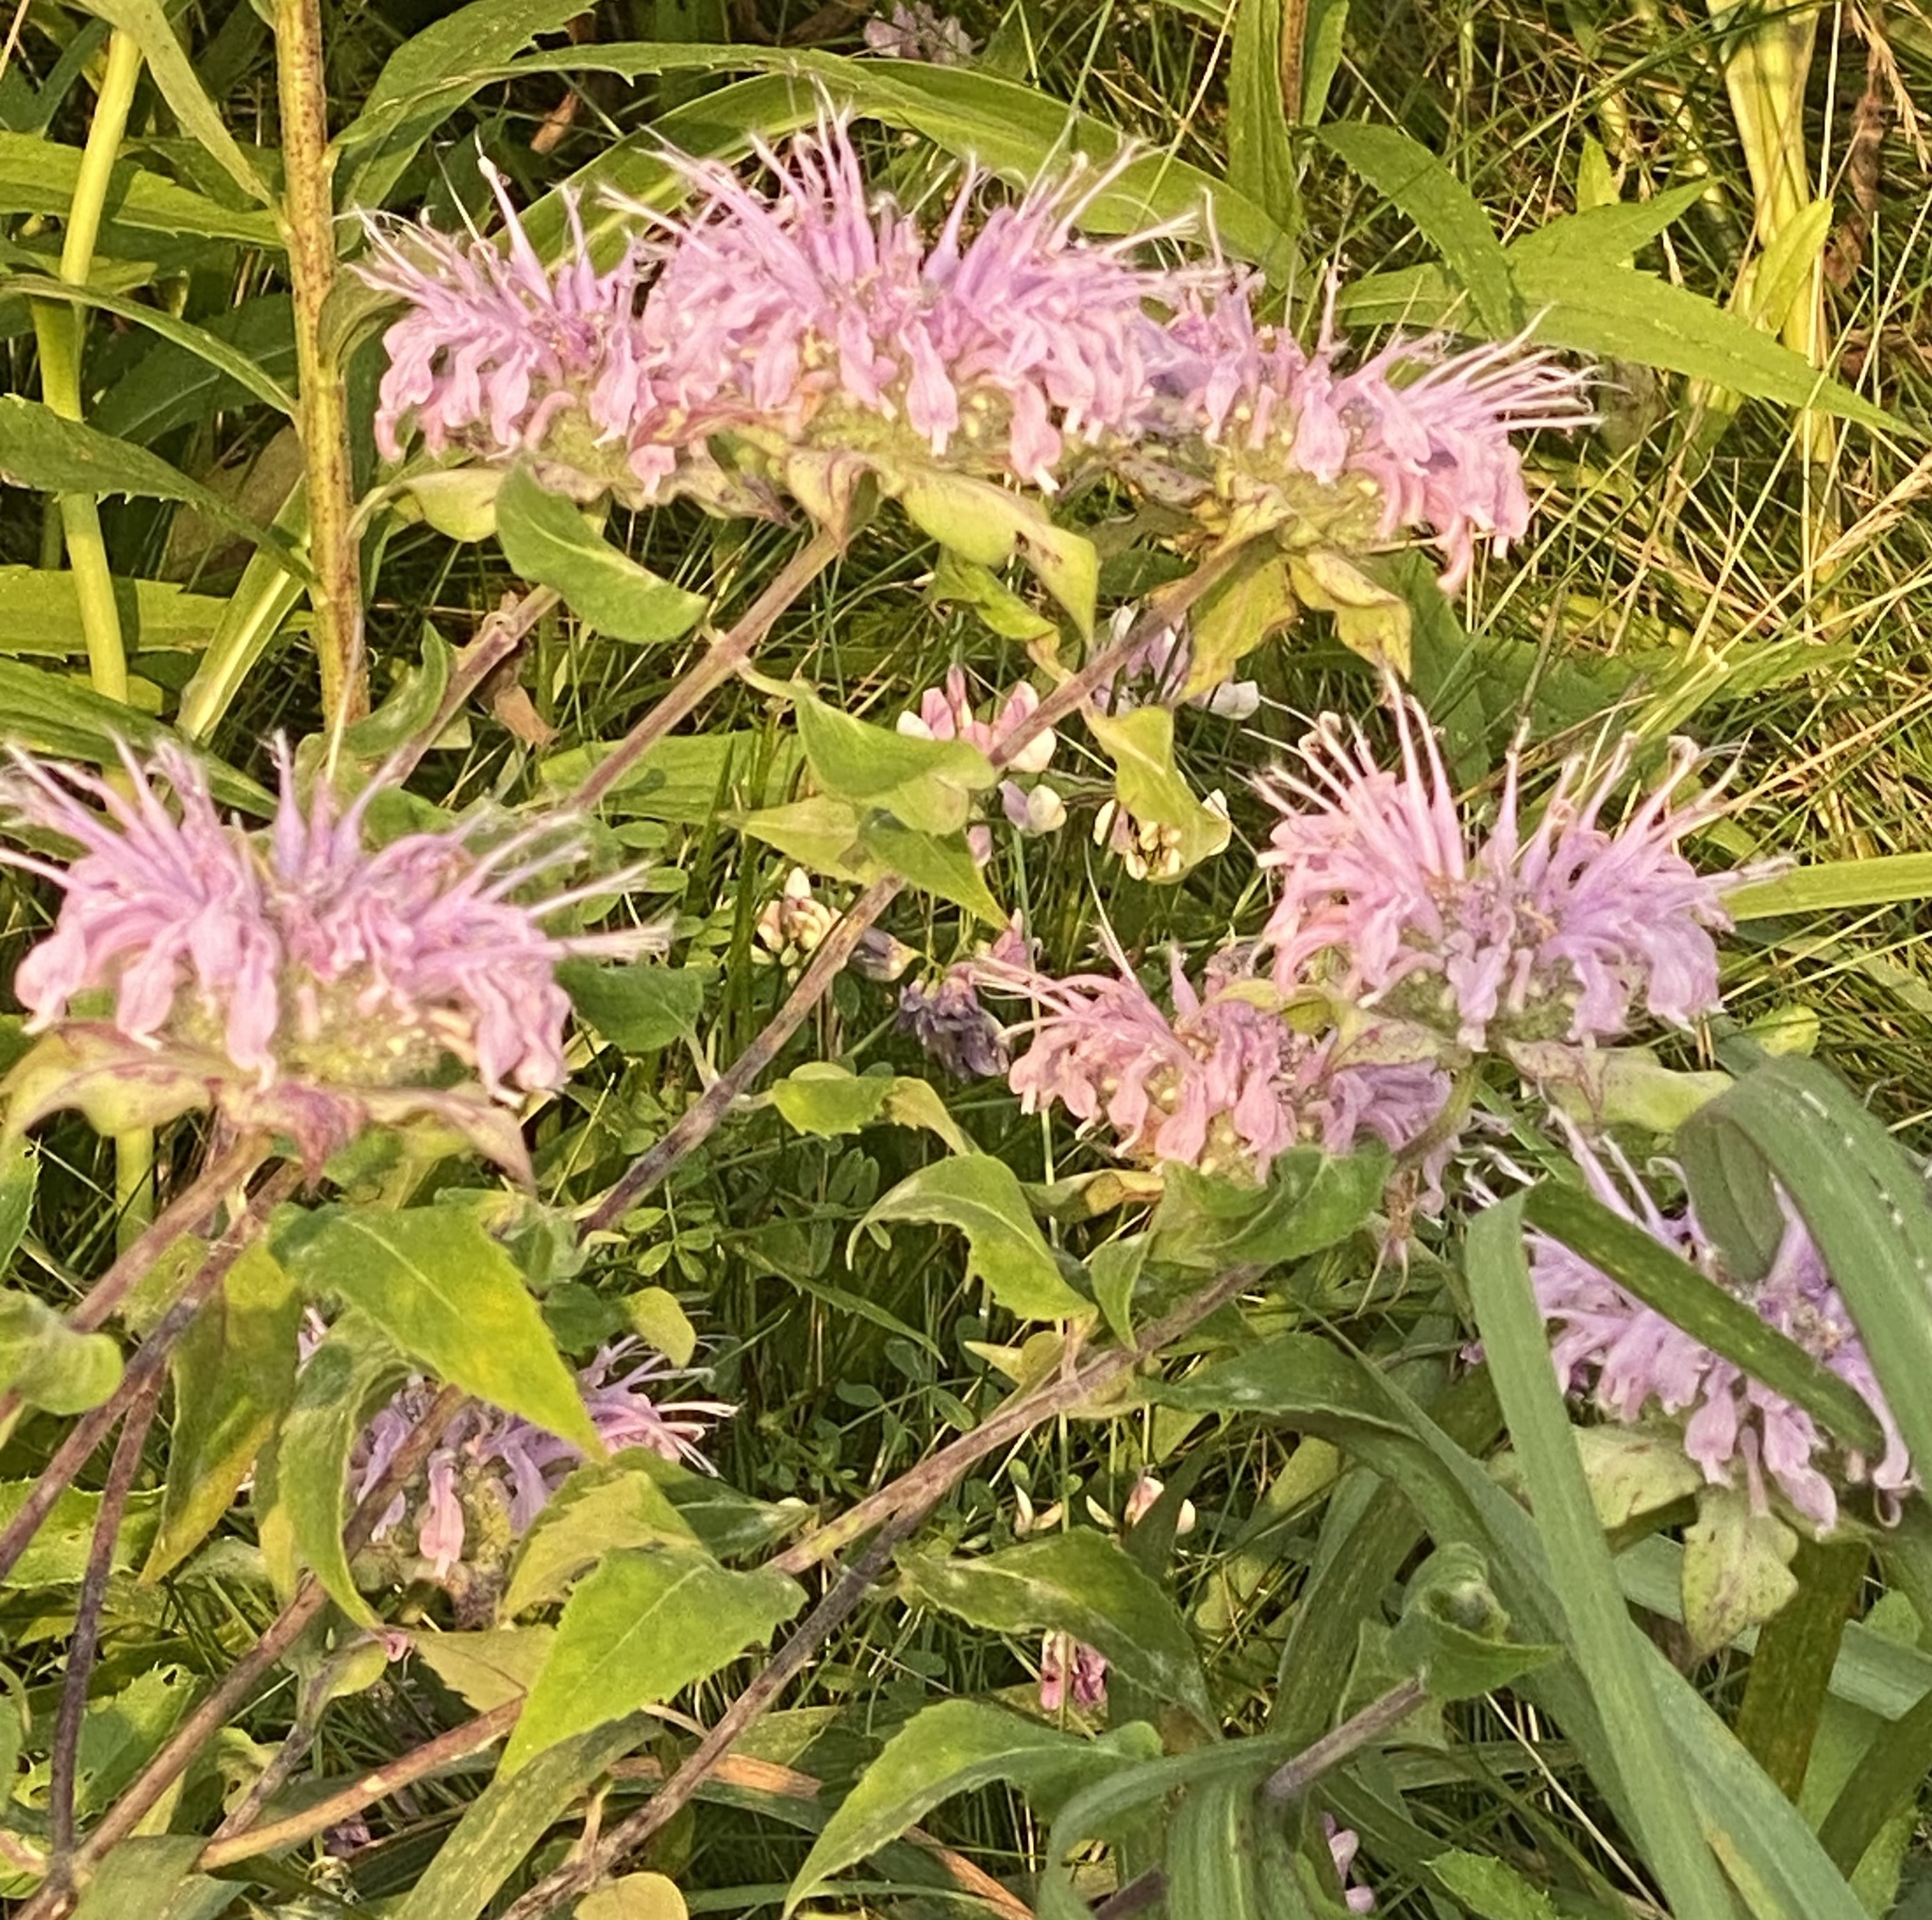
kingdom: Plantae
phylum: Tracheophyta
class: Magnoliopsida
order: Lamiales
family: Lamiaceae
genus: Monarda
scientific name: Monarda fistulosa
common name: Purple beebalm
